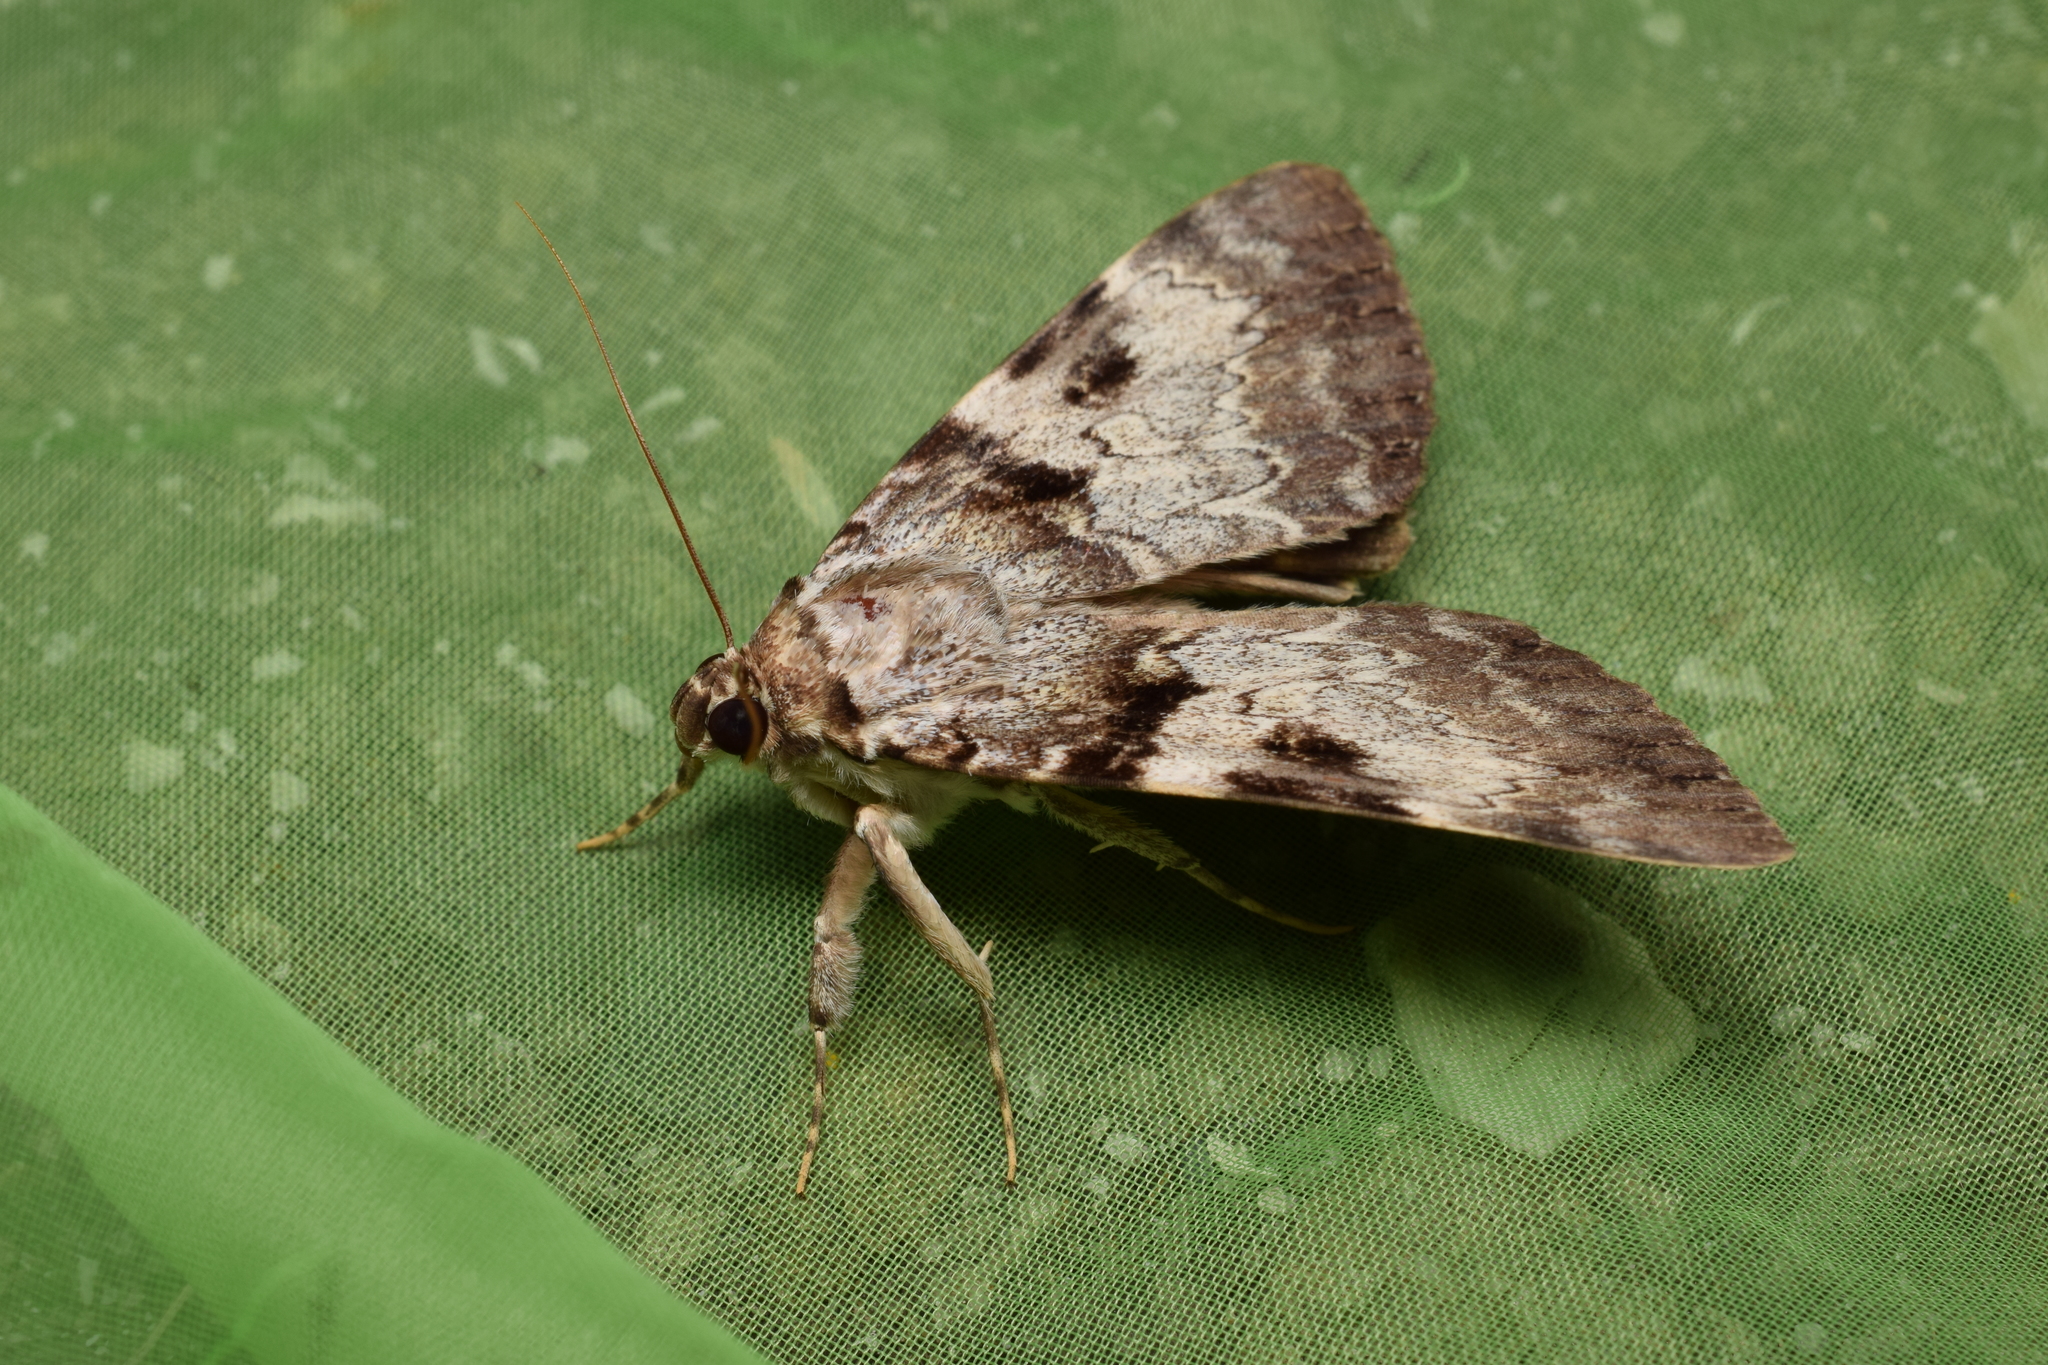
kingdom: Animalia
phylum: Arthropoda
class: Insecta
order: Lepidoptera
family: Erebidae
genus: Catocala
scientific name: Catocala intacta
